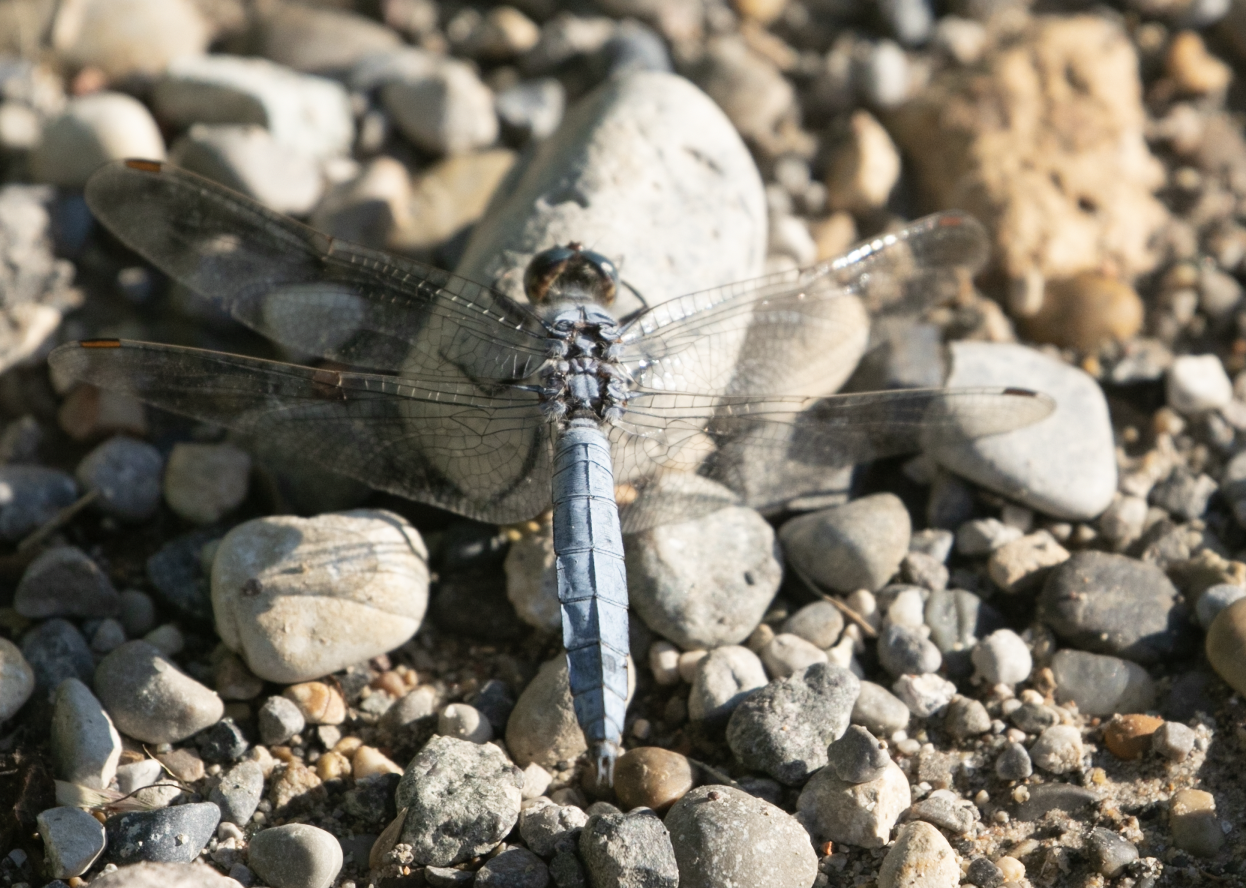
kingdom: Animalia
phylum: Arthropoda
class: Insecta
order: Odonata
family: Libellulidae
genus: Orthetrum
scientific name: Orthetrum brunneum
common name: Southern skimmer
